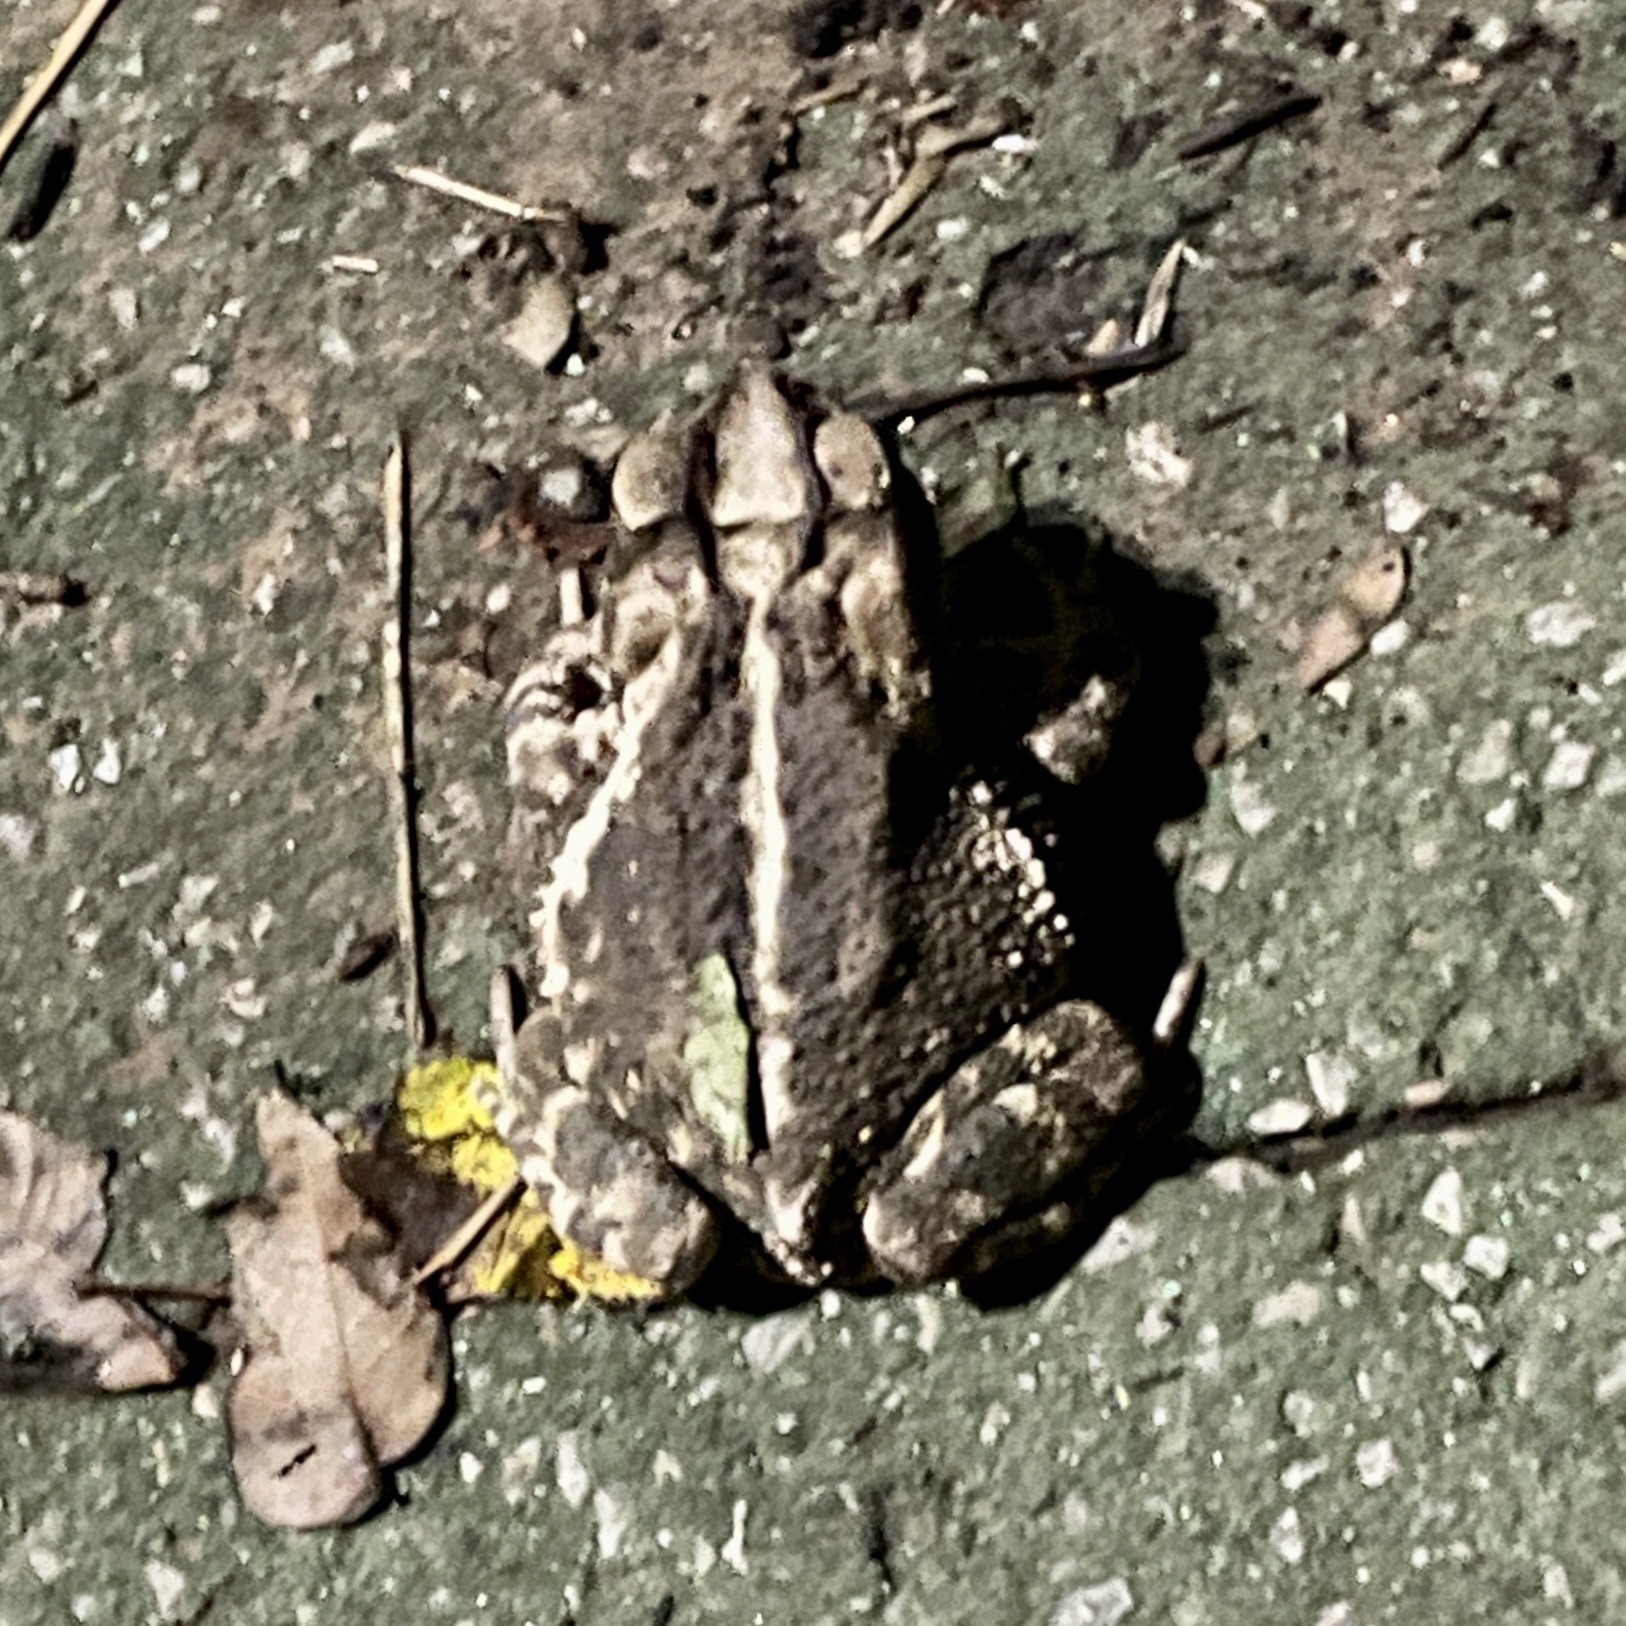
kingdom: Animalia
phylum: Chordata
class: Amphibia
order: Anura
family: Bufonidae
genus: Incilius
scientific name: Incilius nebulifer
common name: Gulf coast toad
